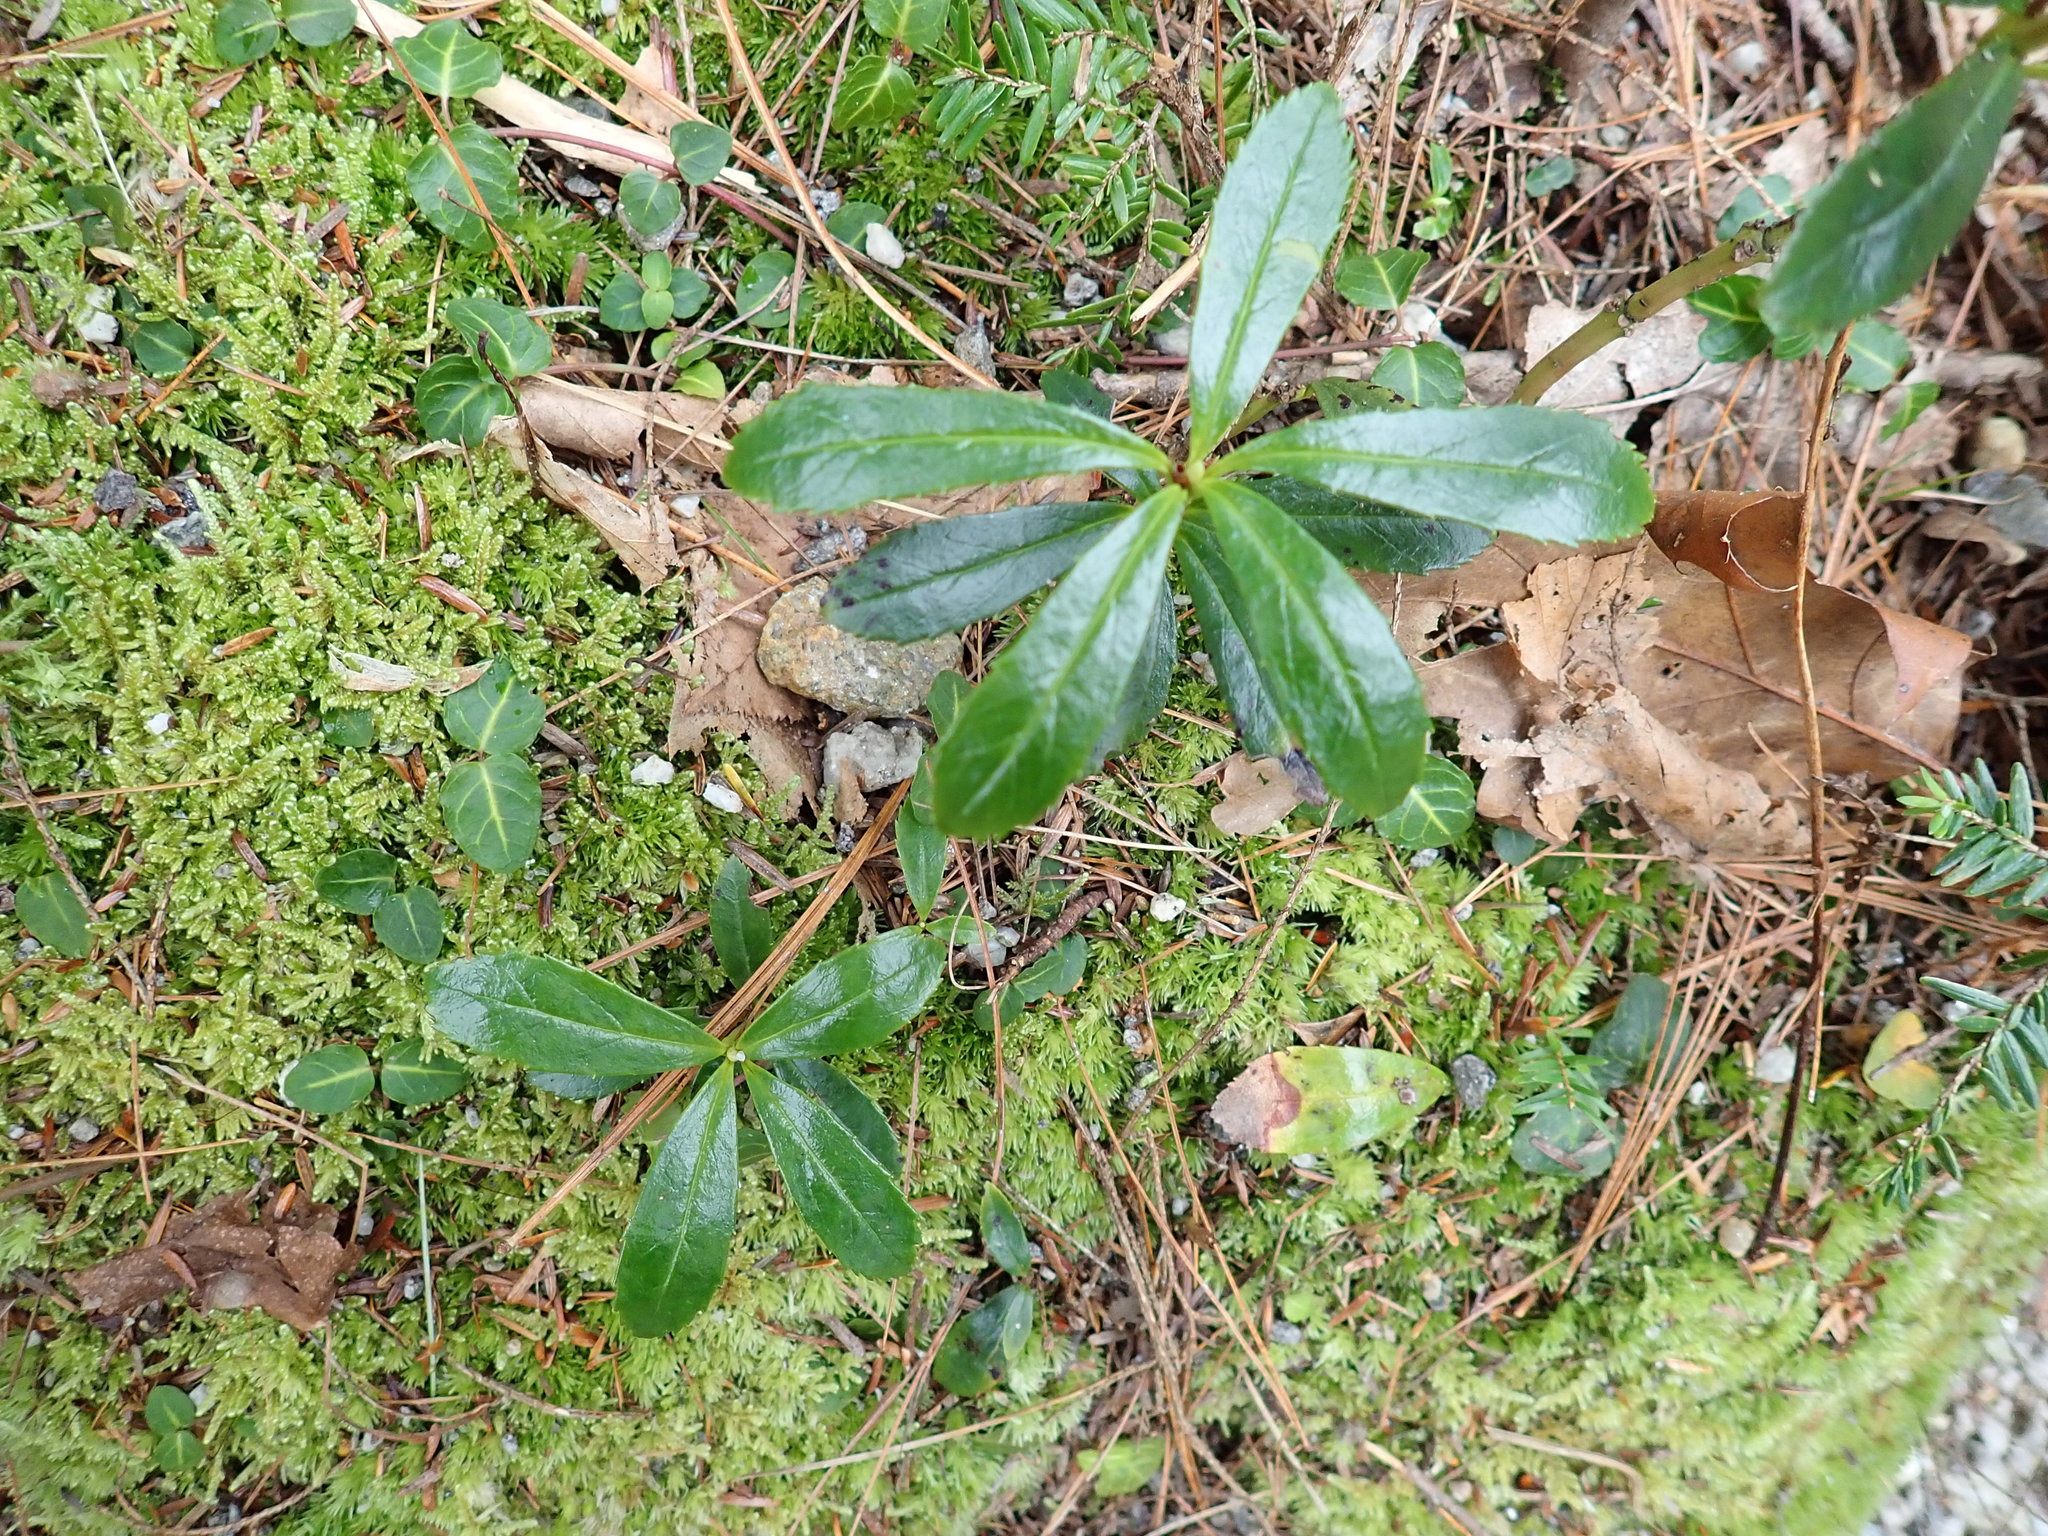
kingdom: Plantae
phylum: Tracheophyta
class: Magnoliopsida
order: Ericales
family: Ericaceae
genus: Chimaphila
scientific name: Chimaphila umbellata
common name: Pipsissewa
